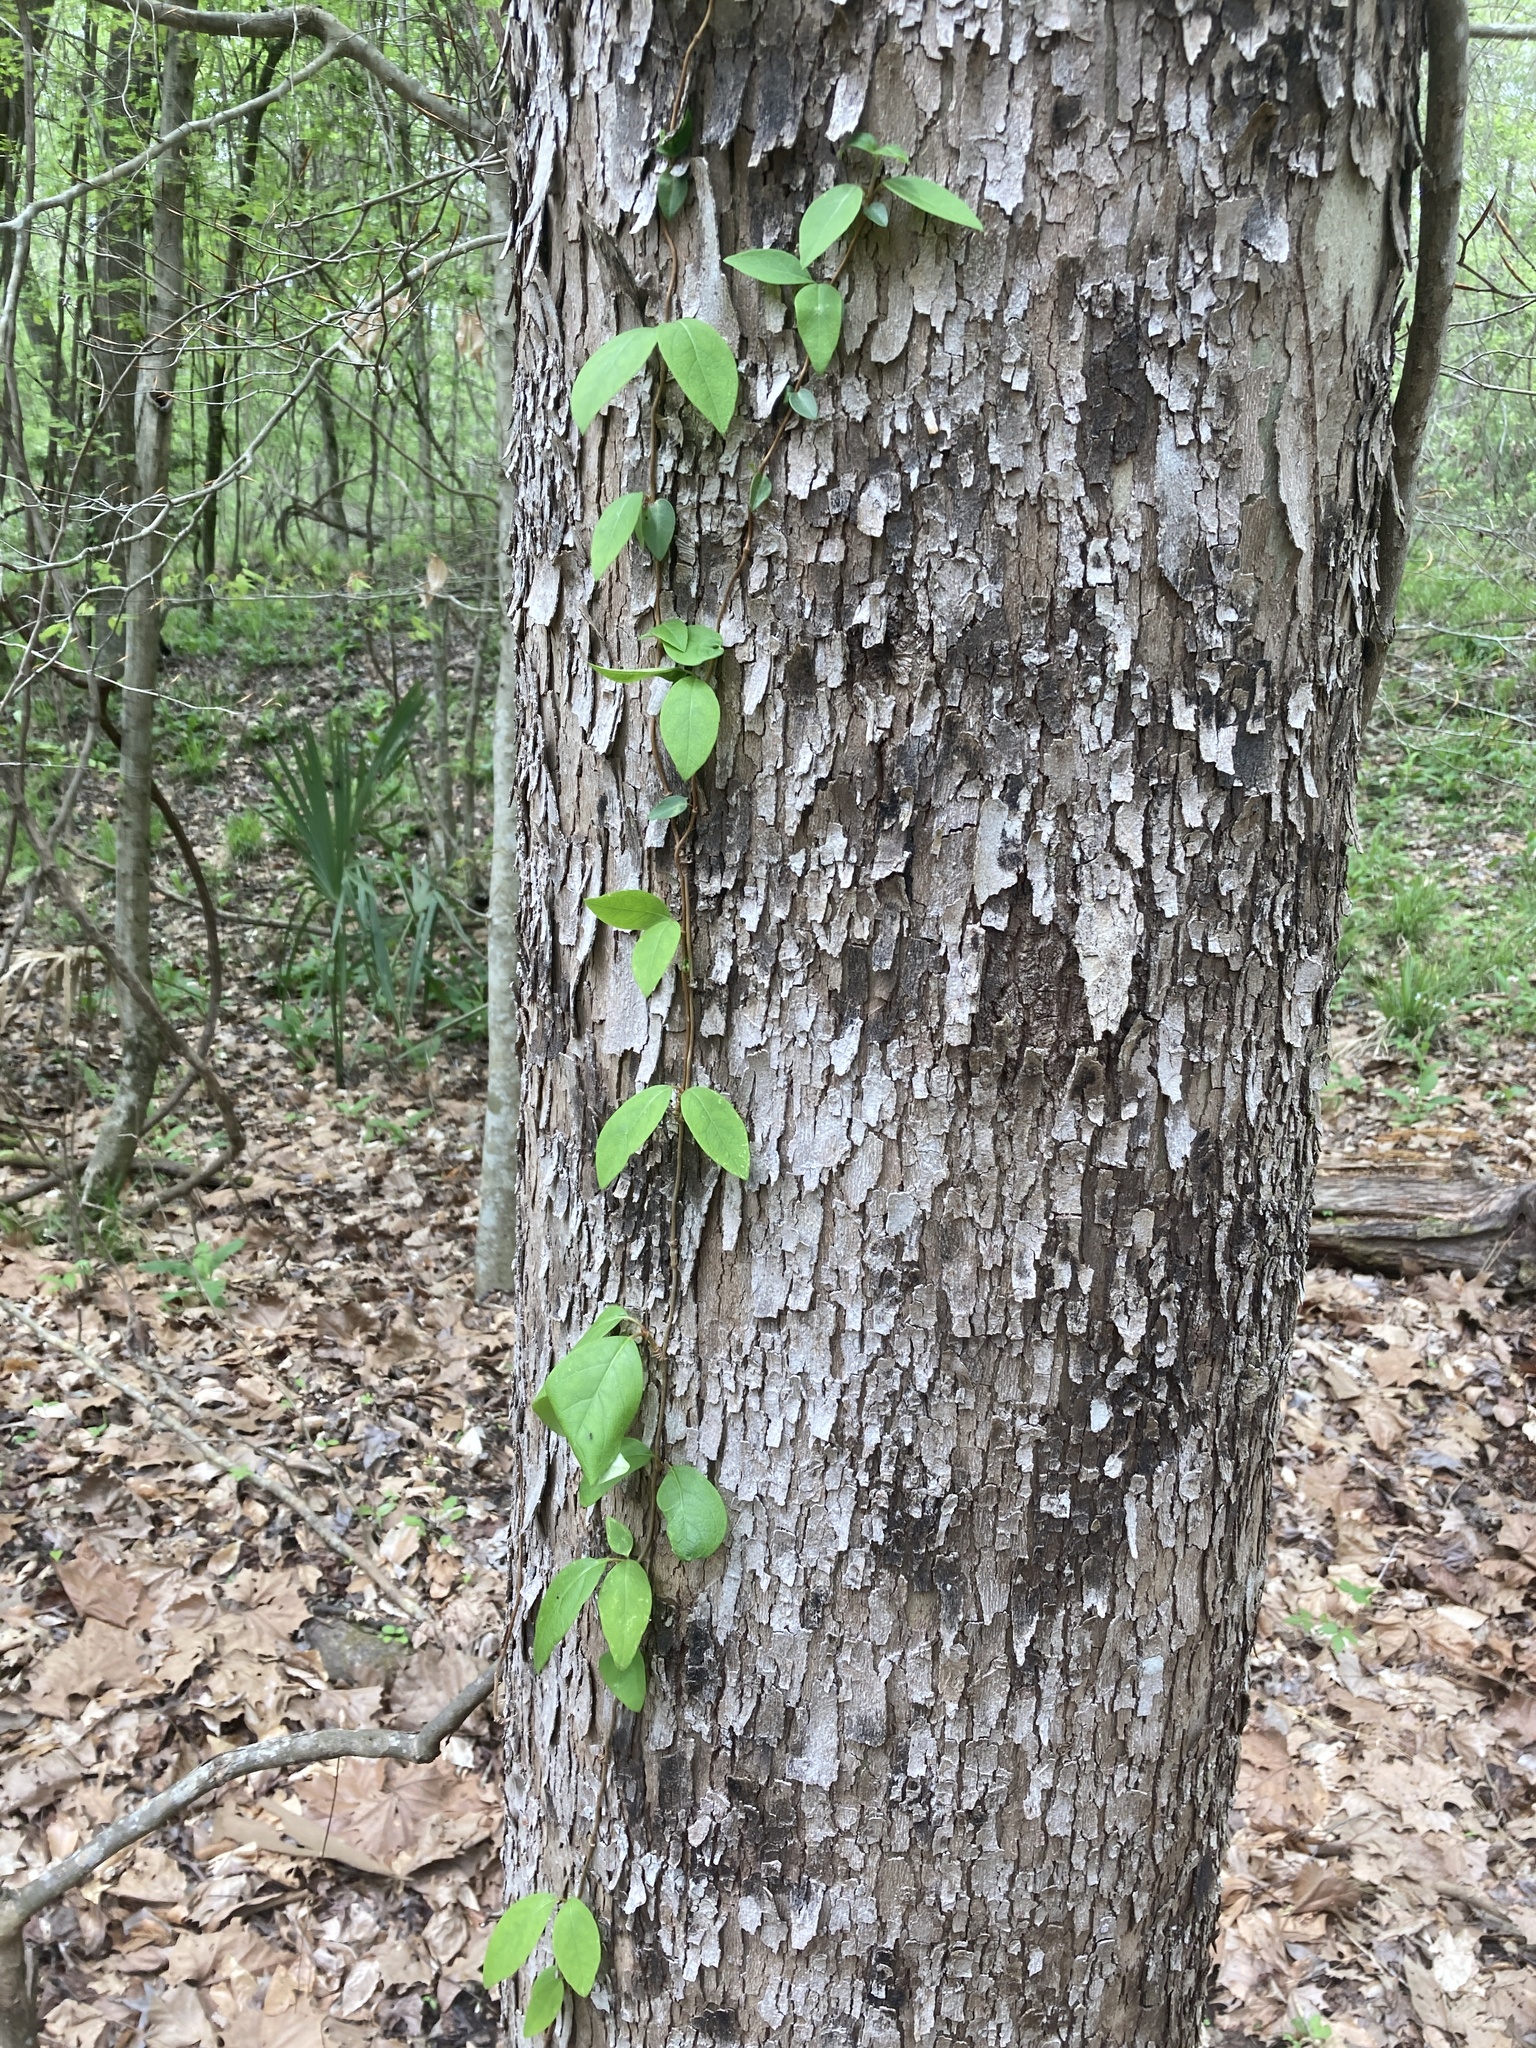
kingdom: Plantae
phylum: Tracheophyta
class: Magnoliopsida
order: Cornales
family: Hydrangeaceae
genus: Hydrangea
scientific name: Hydrangea barbara
